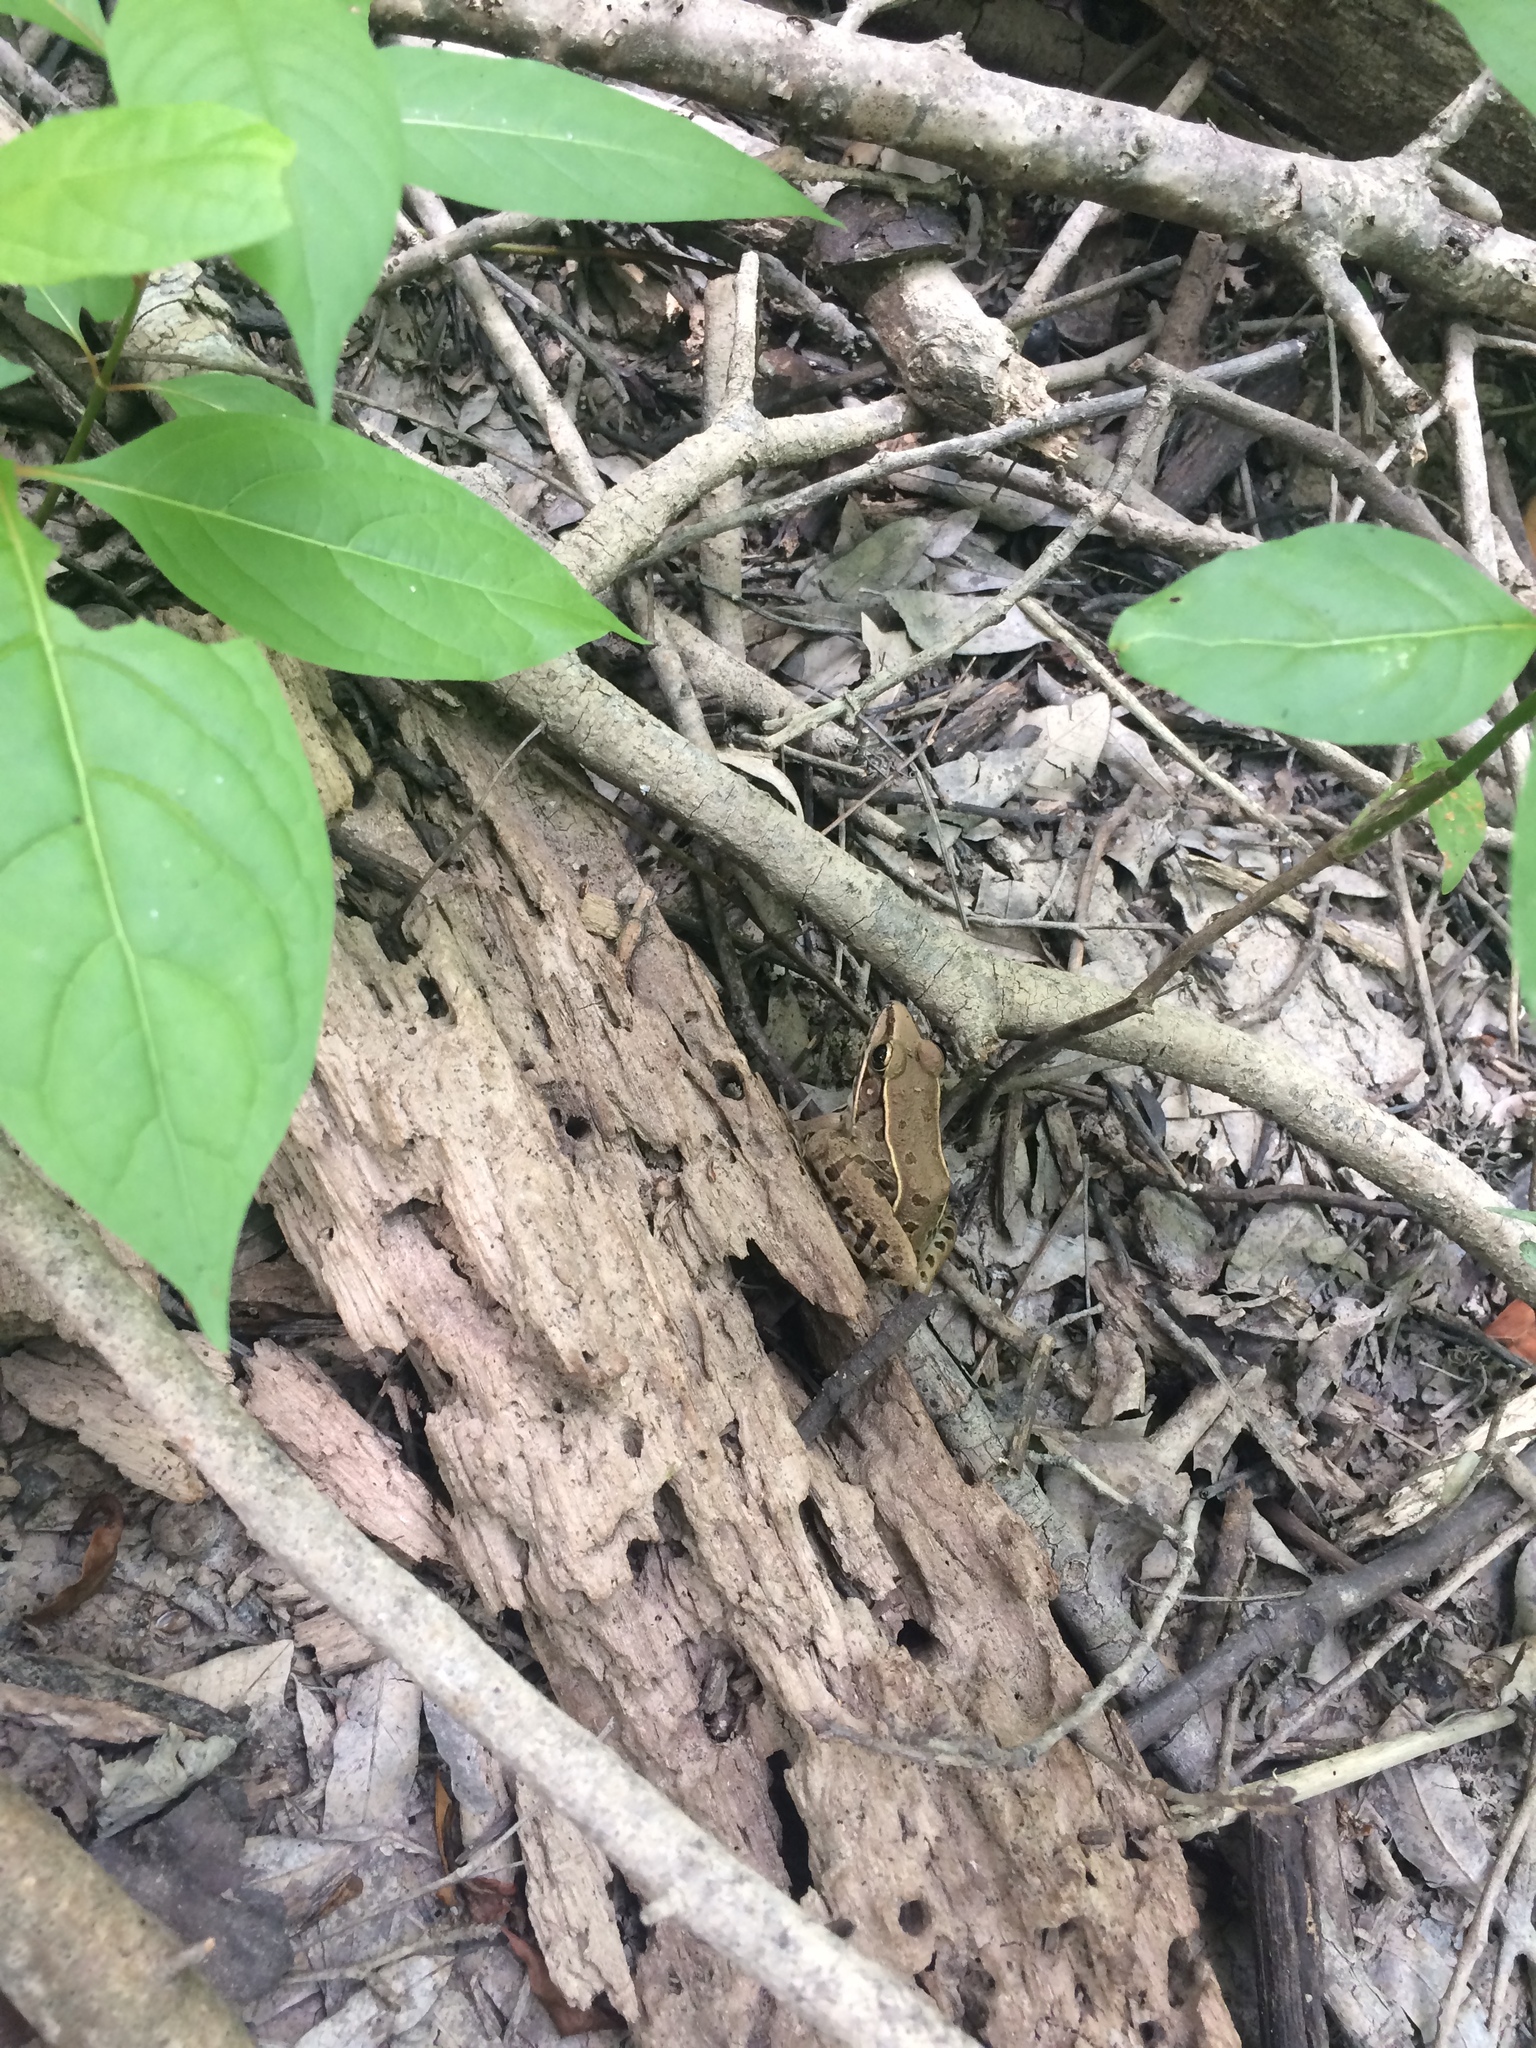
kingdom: Animalia
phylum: Chordata
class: Amphibia
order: Anura
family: Ranidae
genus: Lithobates
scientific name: Lithobates sphenocephalus
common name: Southern leopard frog
